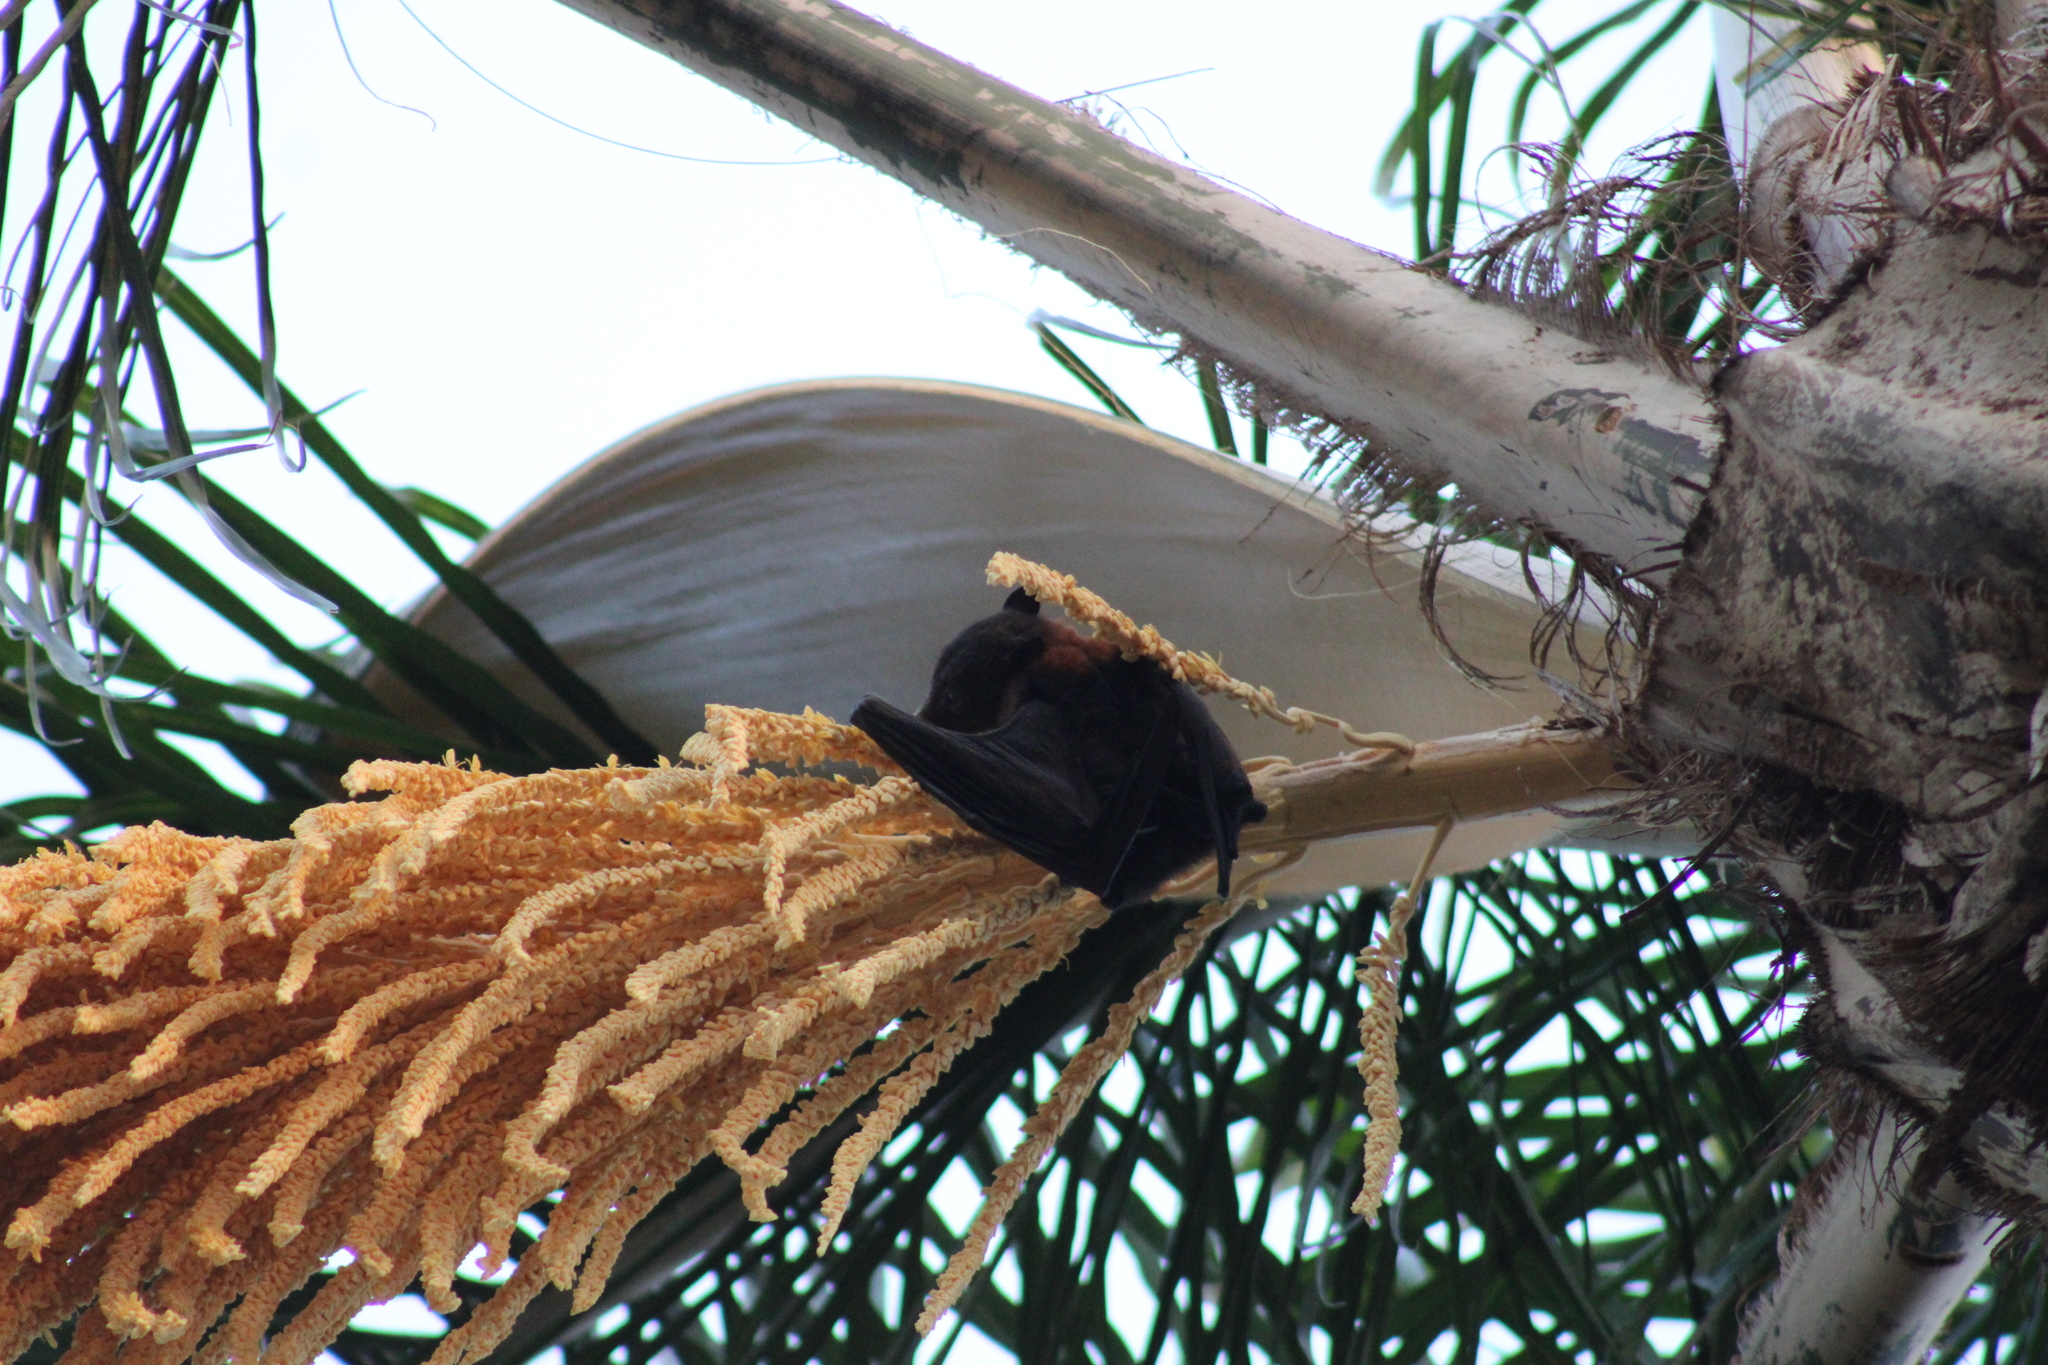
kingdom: Animalia
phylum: Chordata
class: Mammalia
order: Chiroptera
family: Pteropodidae
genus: Pteropus
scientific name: Pteropus alecto
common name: Black flying fox
